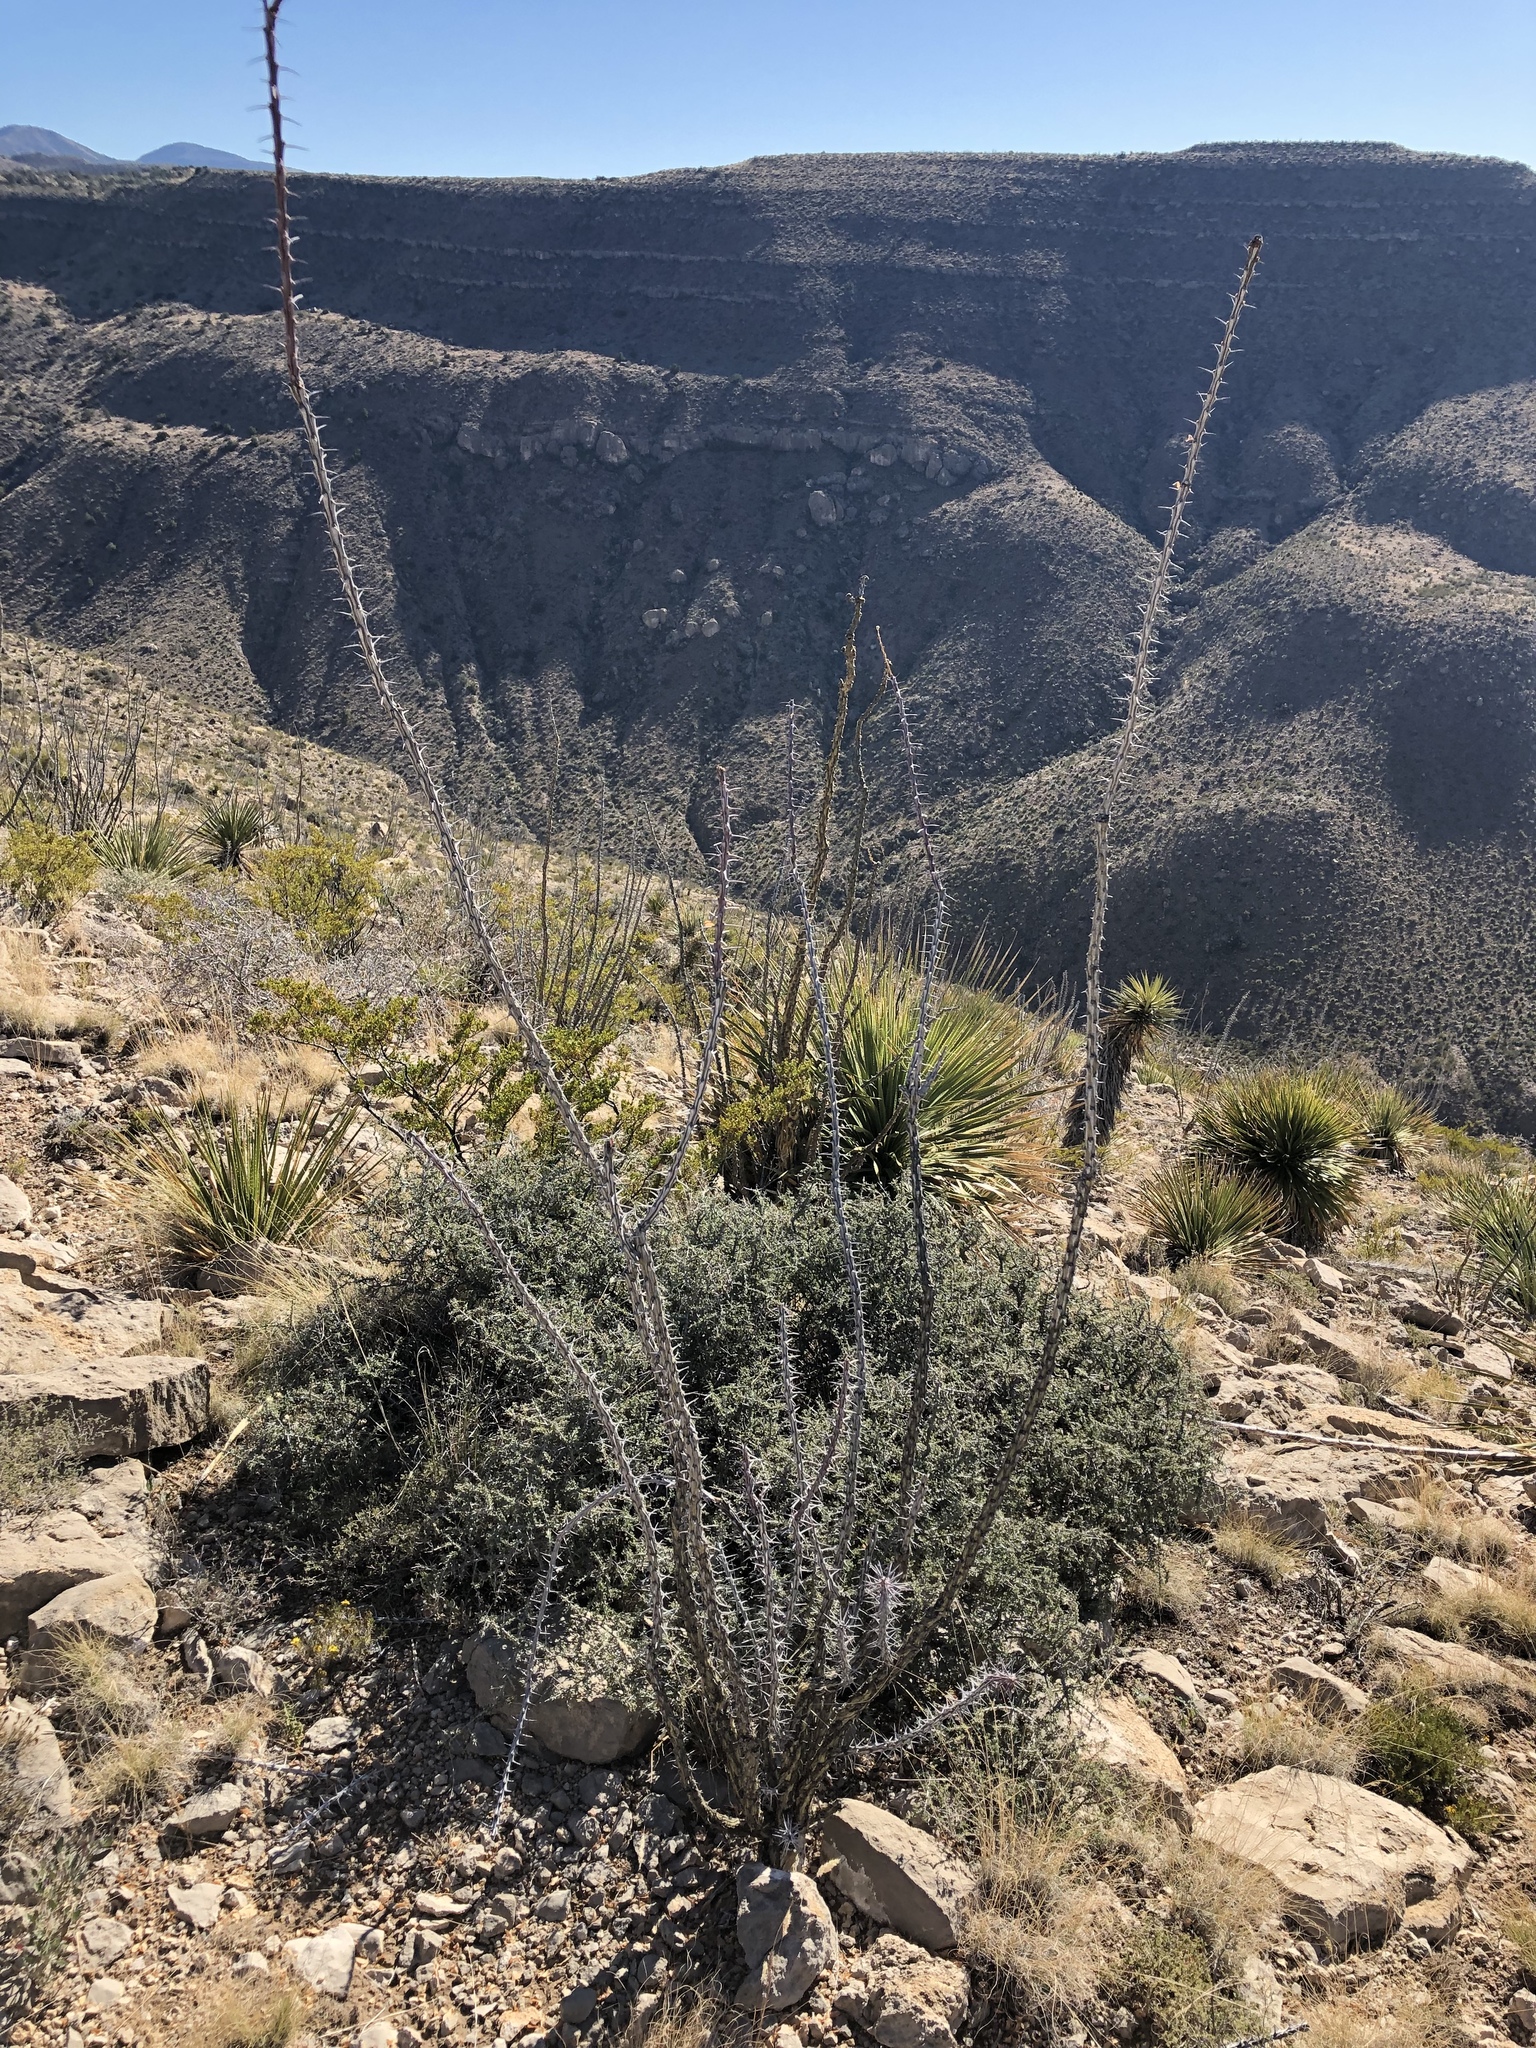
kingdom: Plantae
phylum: Tracheophyta
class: Magnoliopsida
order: Ericales
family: Fouquieriaceae
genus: Fouquieria
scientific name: Fouquieria splendens
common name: Vine-cactus
